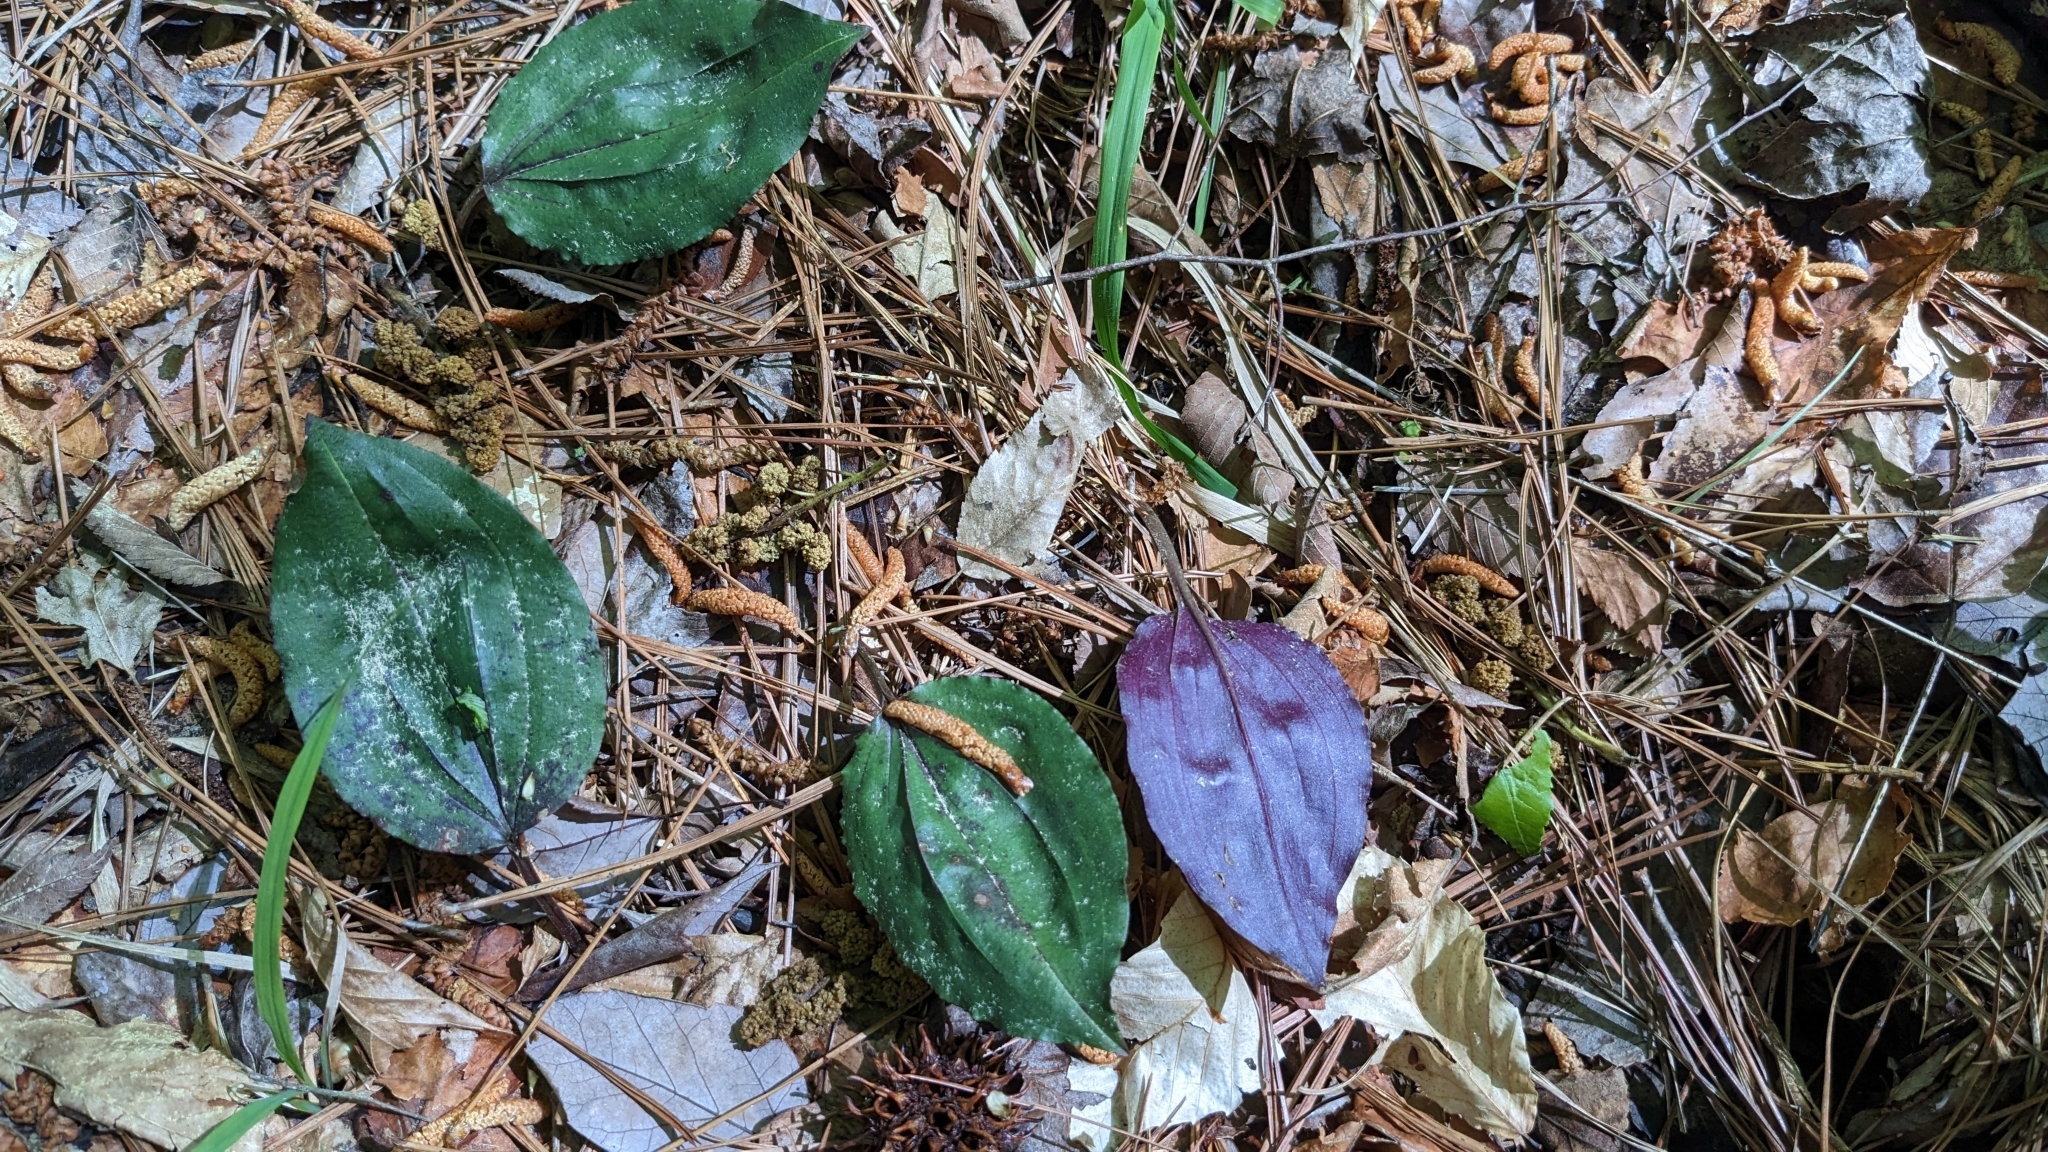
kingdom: Plantae
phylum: Tracheophyta
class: Liliopsida
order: Asparagales
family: Orchidaceae
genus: Tipularia
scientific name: Tipularia discolor
